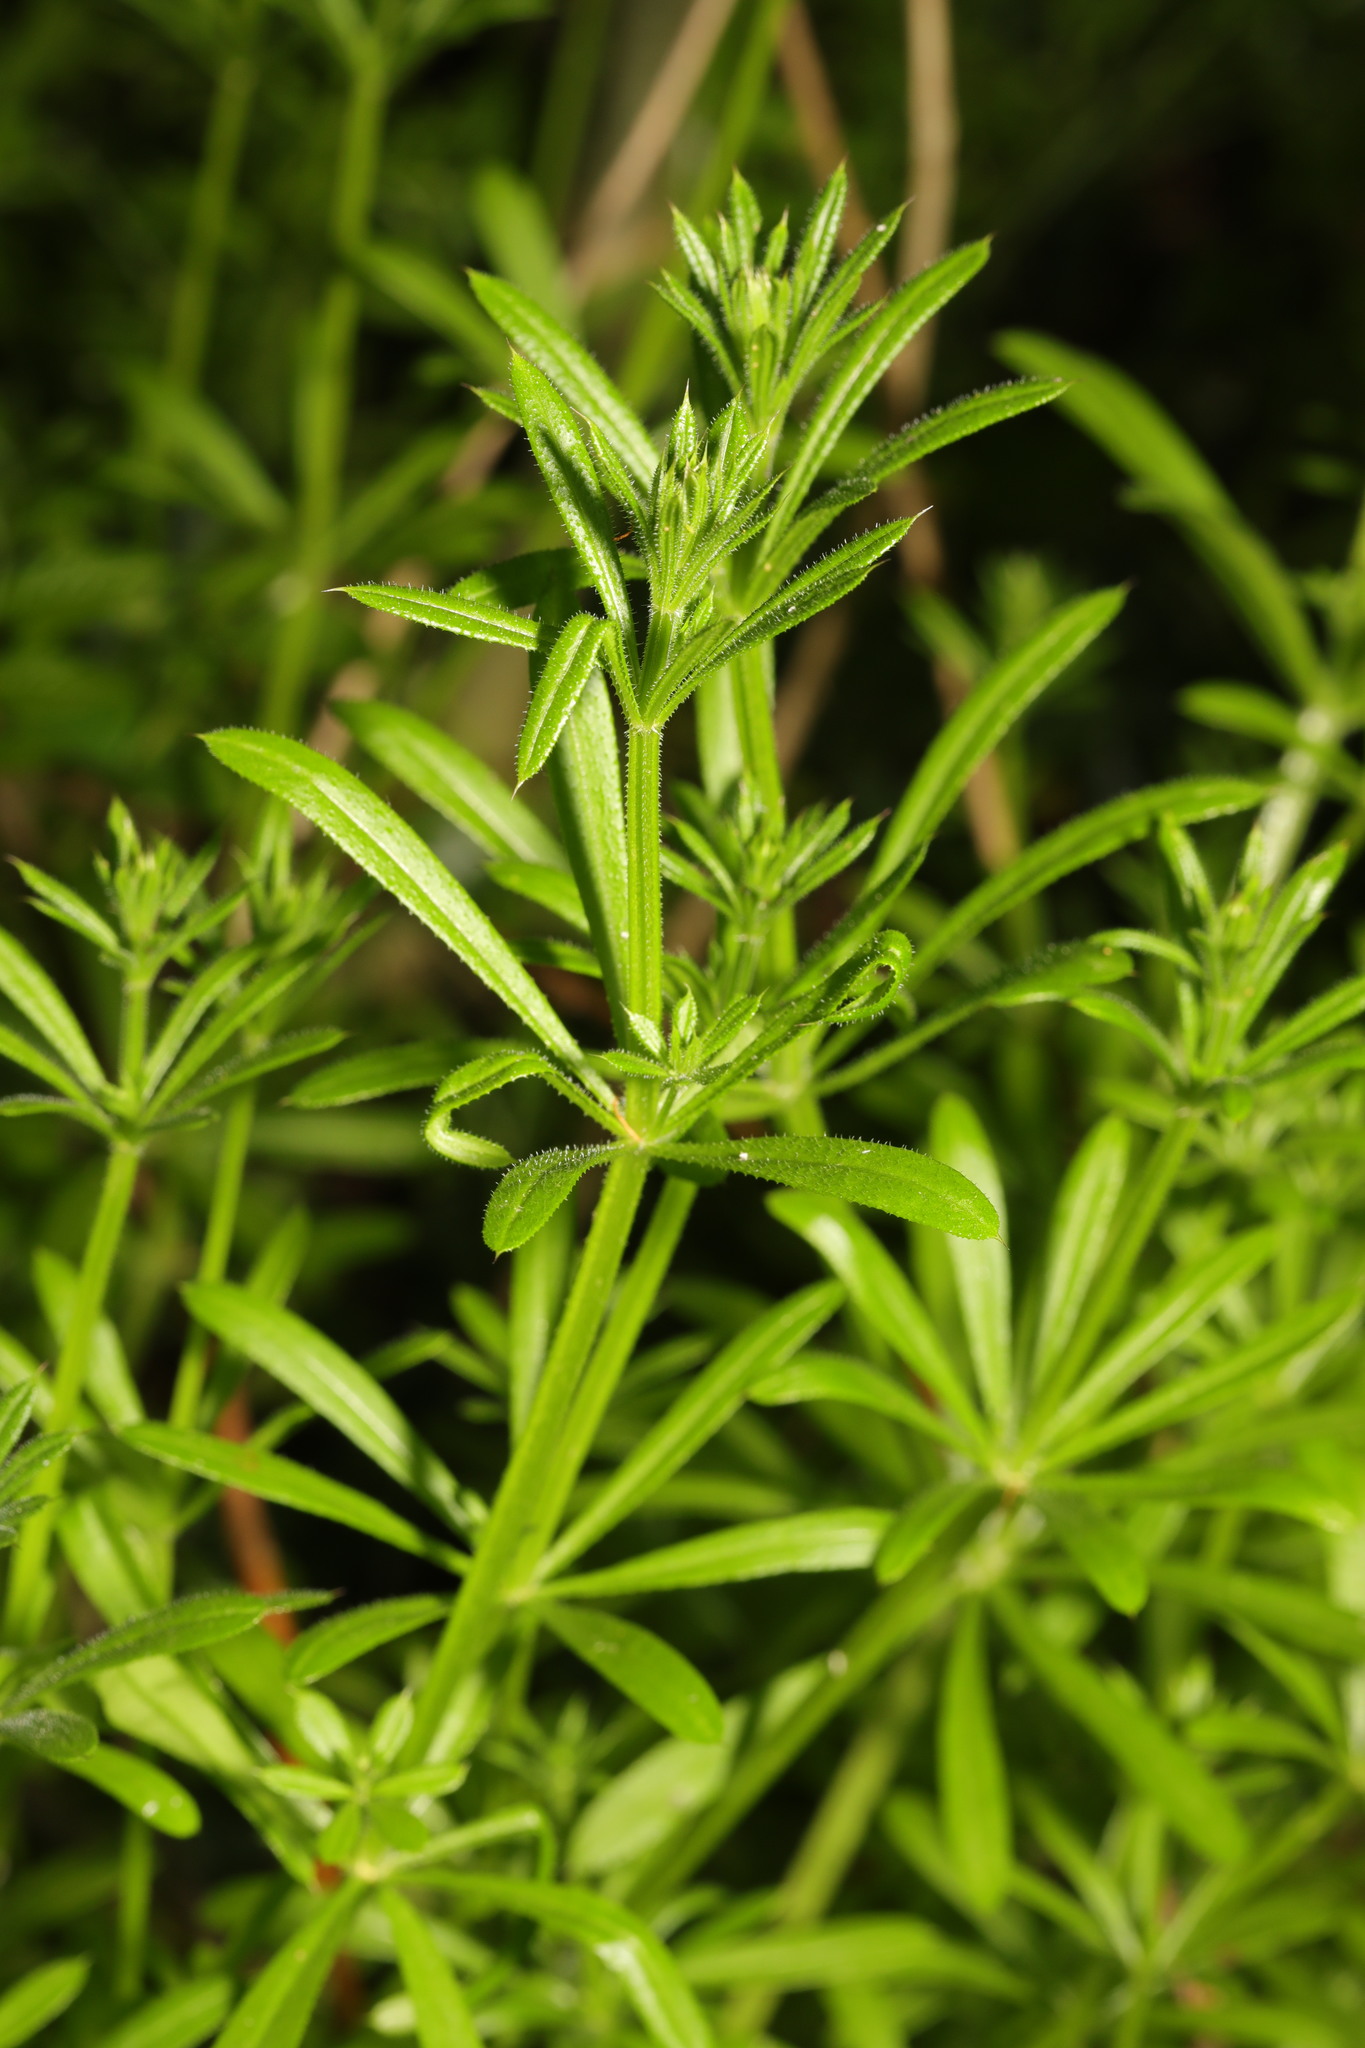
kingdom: Plantae
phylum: Tracheophyta
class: Magnoliopsida
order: Gentianales
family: Rubiaceae
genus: Galium
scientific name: Galium aparine
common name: Cleavers
